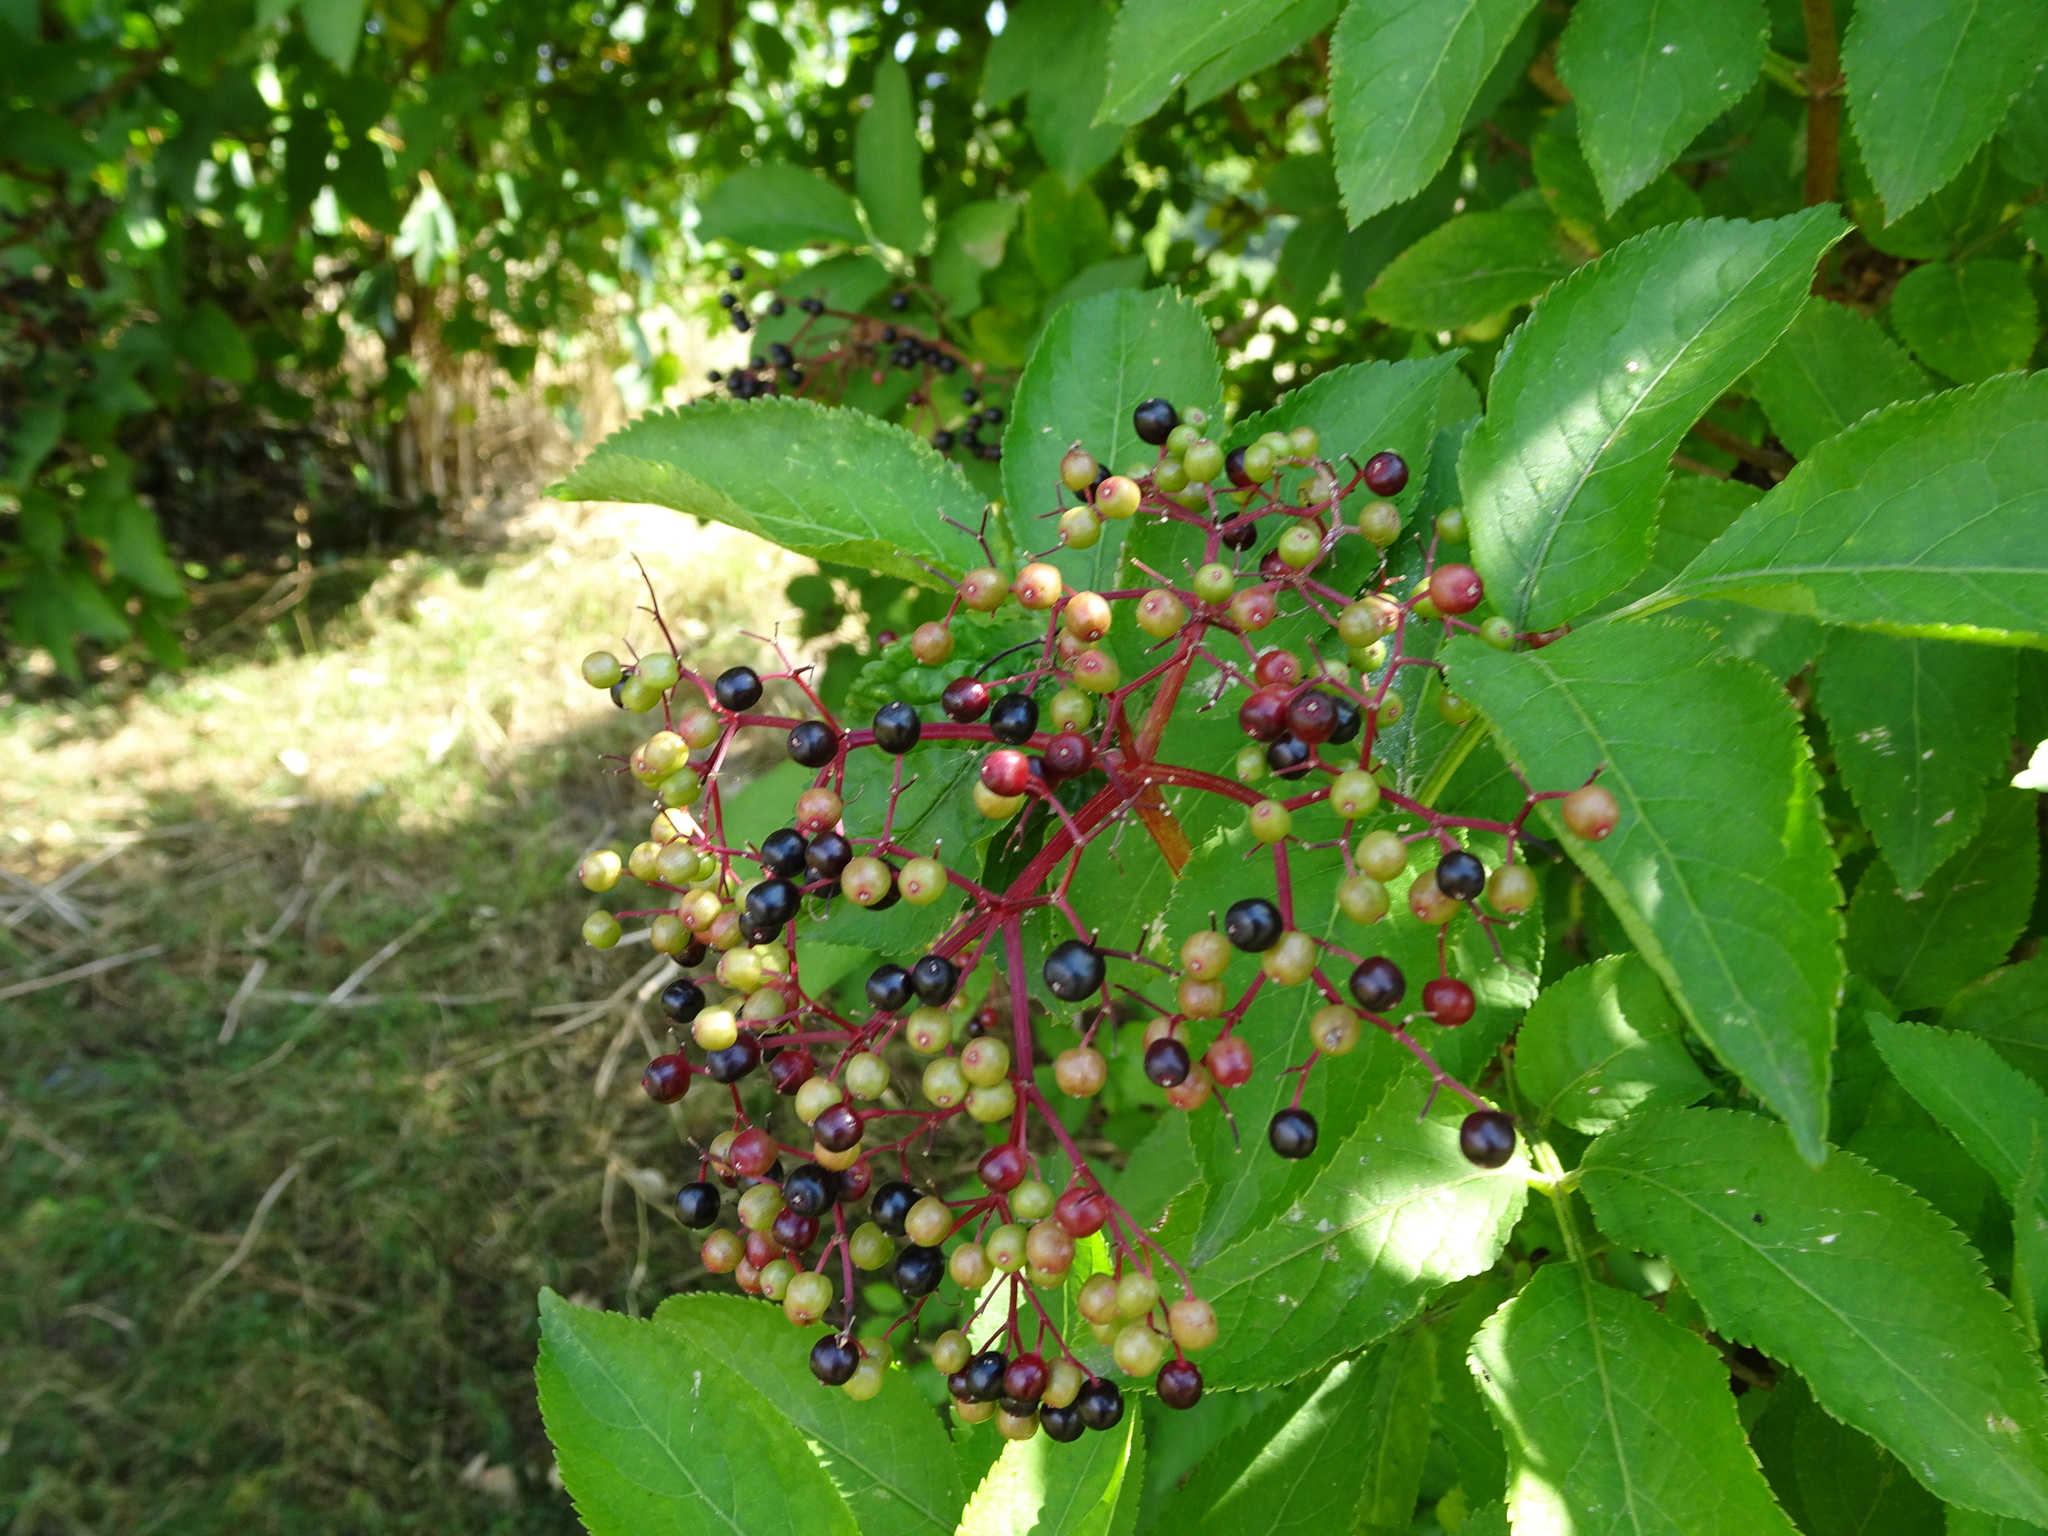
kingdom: Plantae
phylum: Tracheophyta
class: Magnoliopsida
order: Dipsacales
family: Viburnaceae
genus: Sambucus
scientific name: Sambucus nigra
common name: Elder
